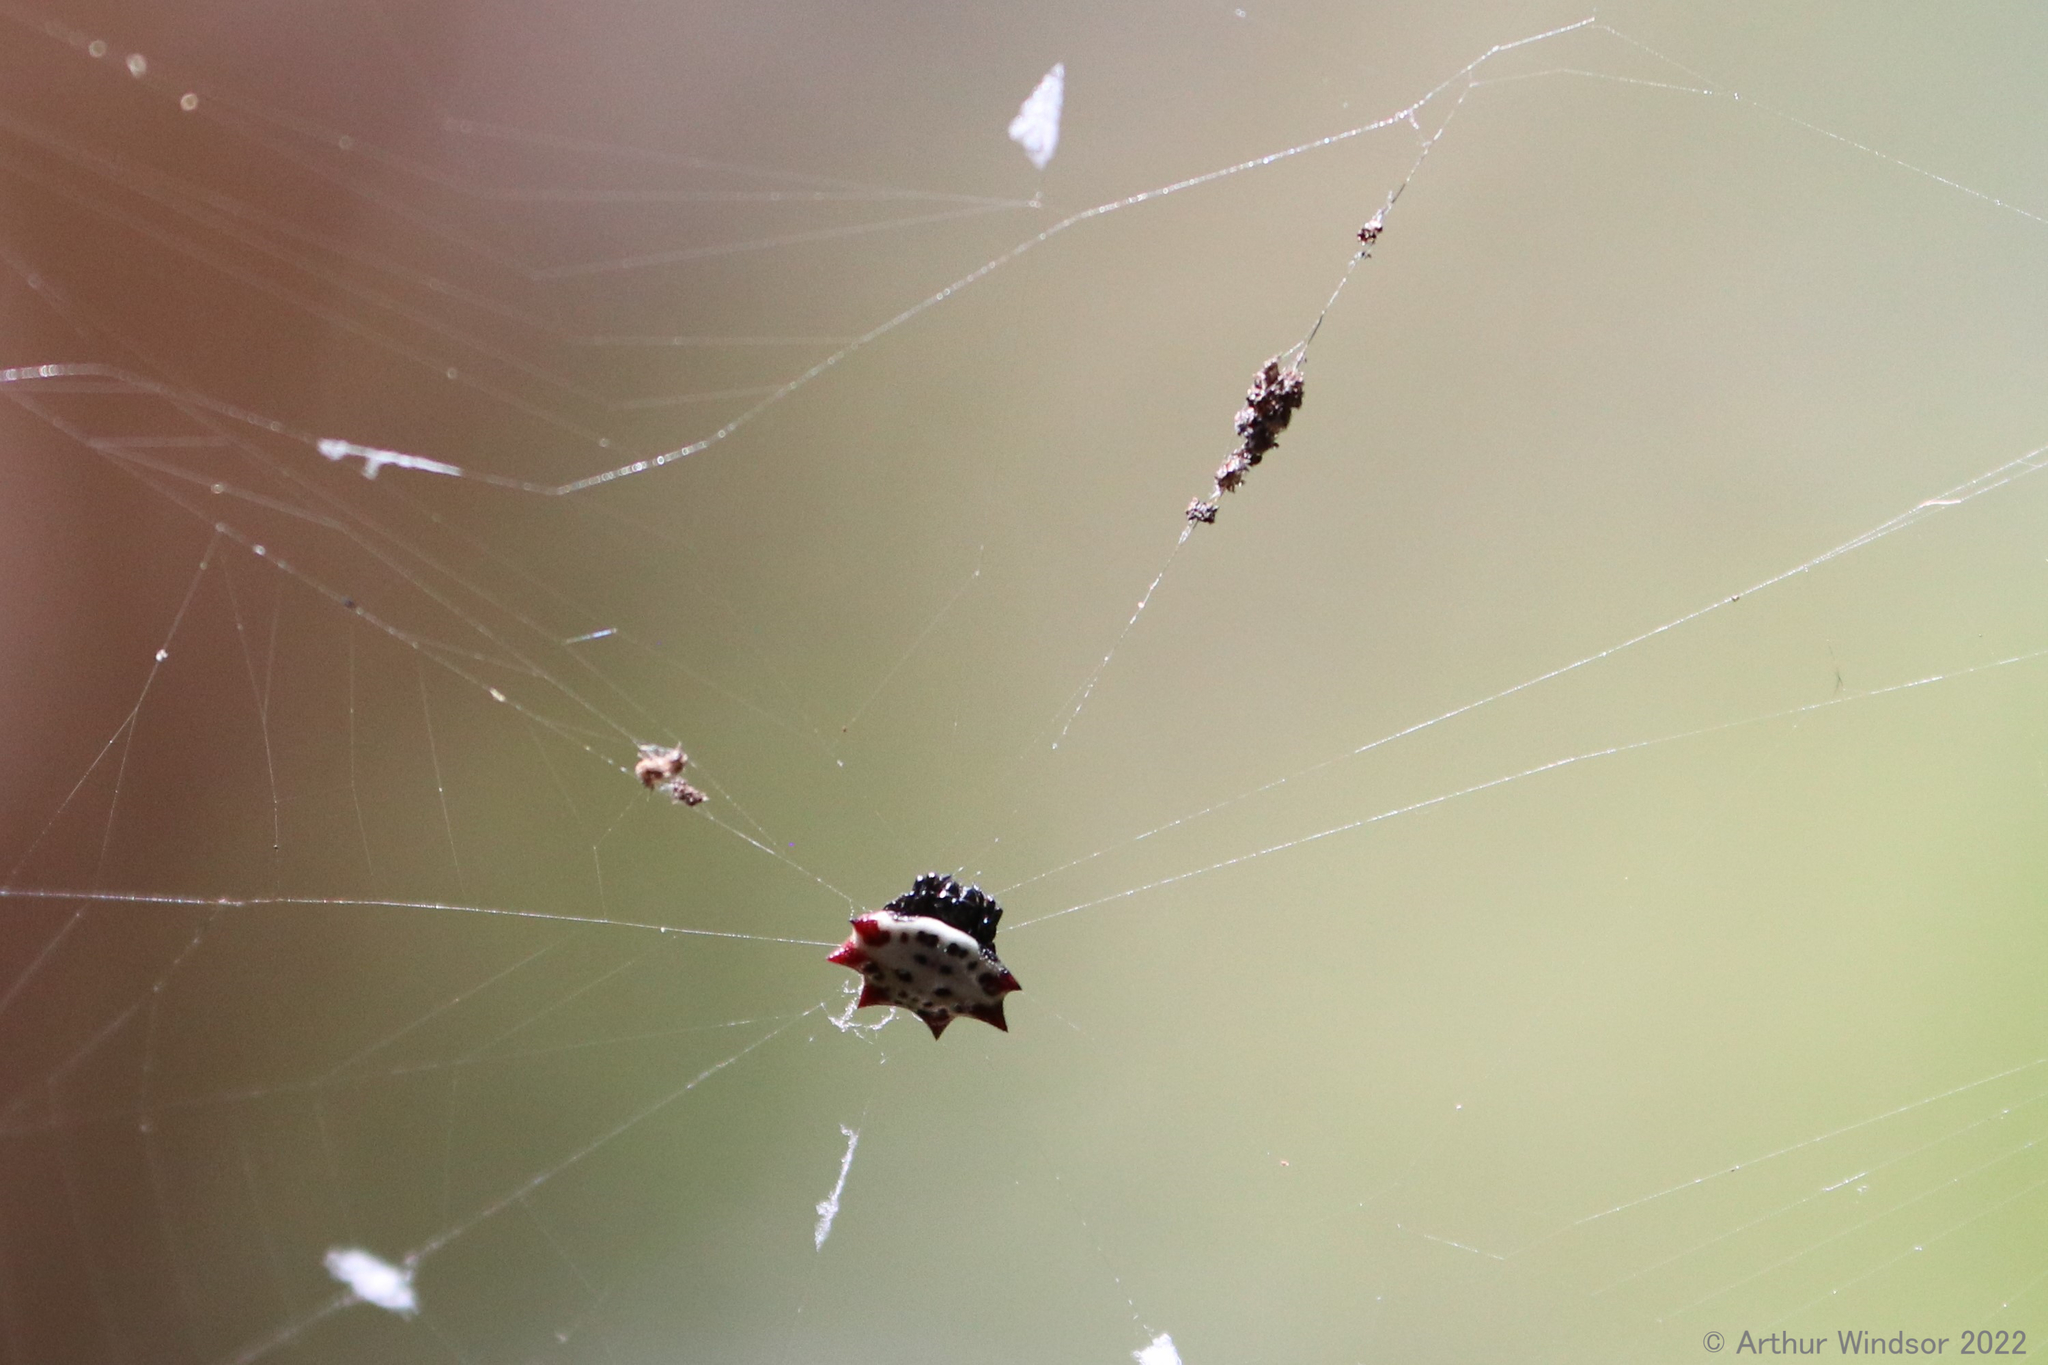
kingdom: Animalia
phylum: Arthropoda
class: Arachnida
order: Araneae
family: Araneidae
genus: Gasteracantha
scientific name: Gasteracantha cancriformis
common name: Orb weavers
